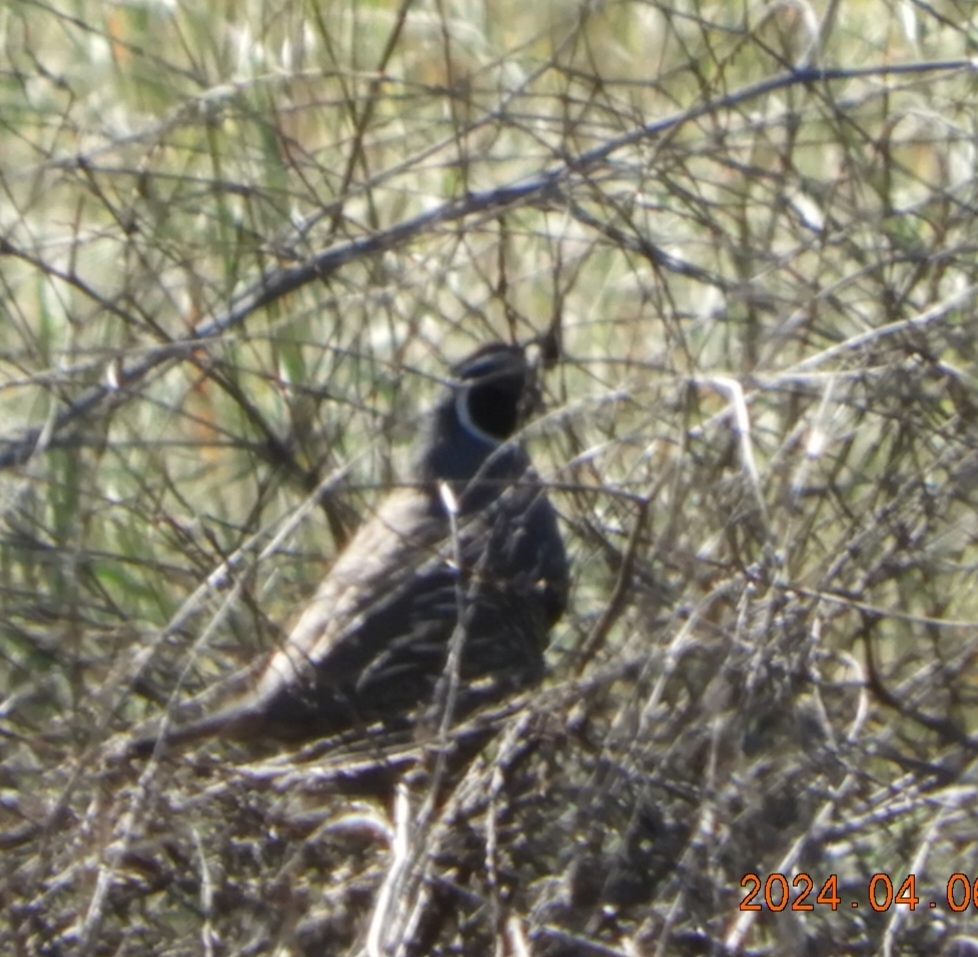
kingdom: Animalia
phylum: Chordata
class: Aves
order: Galliformes
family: Odontophoridae
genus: Callipepla
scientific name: Callipepla californica
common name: California quail
